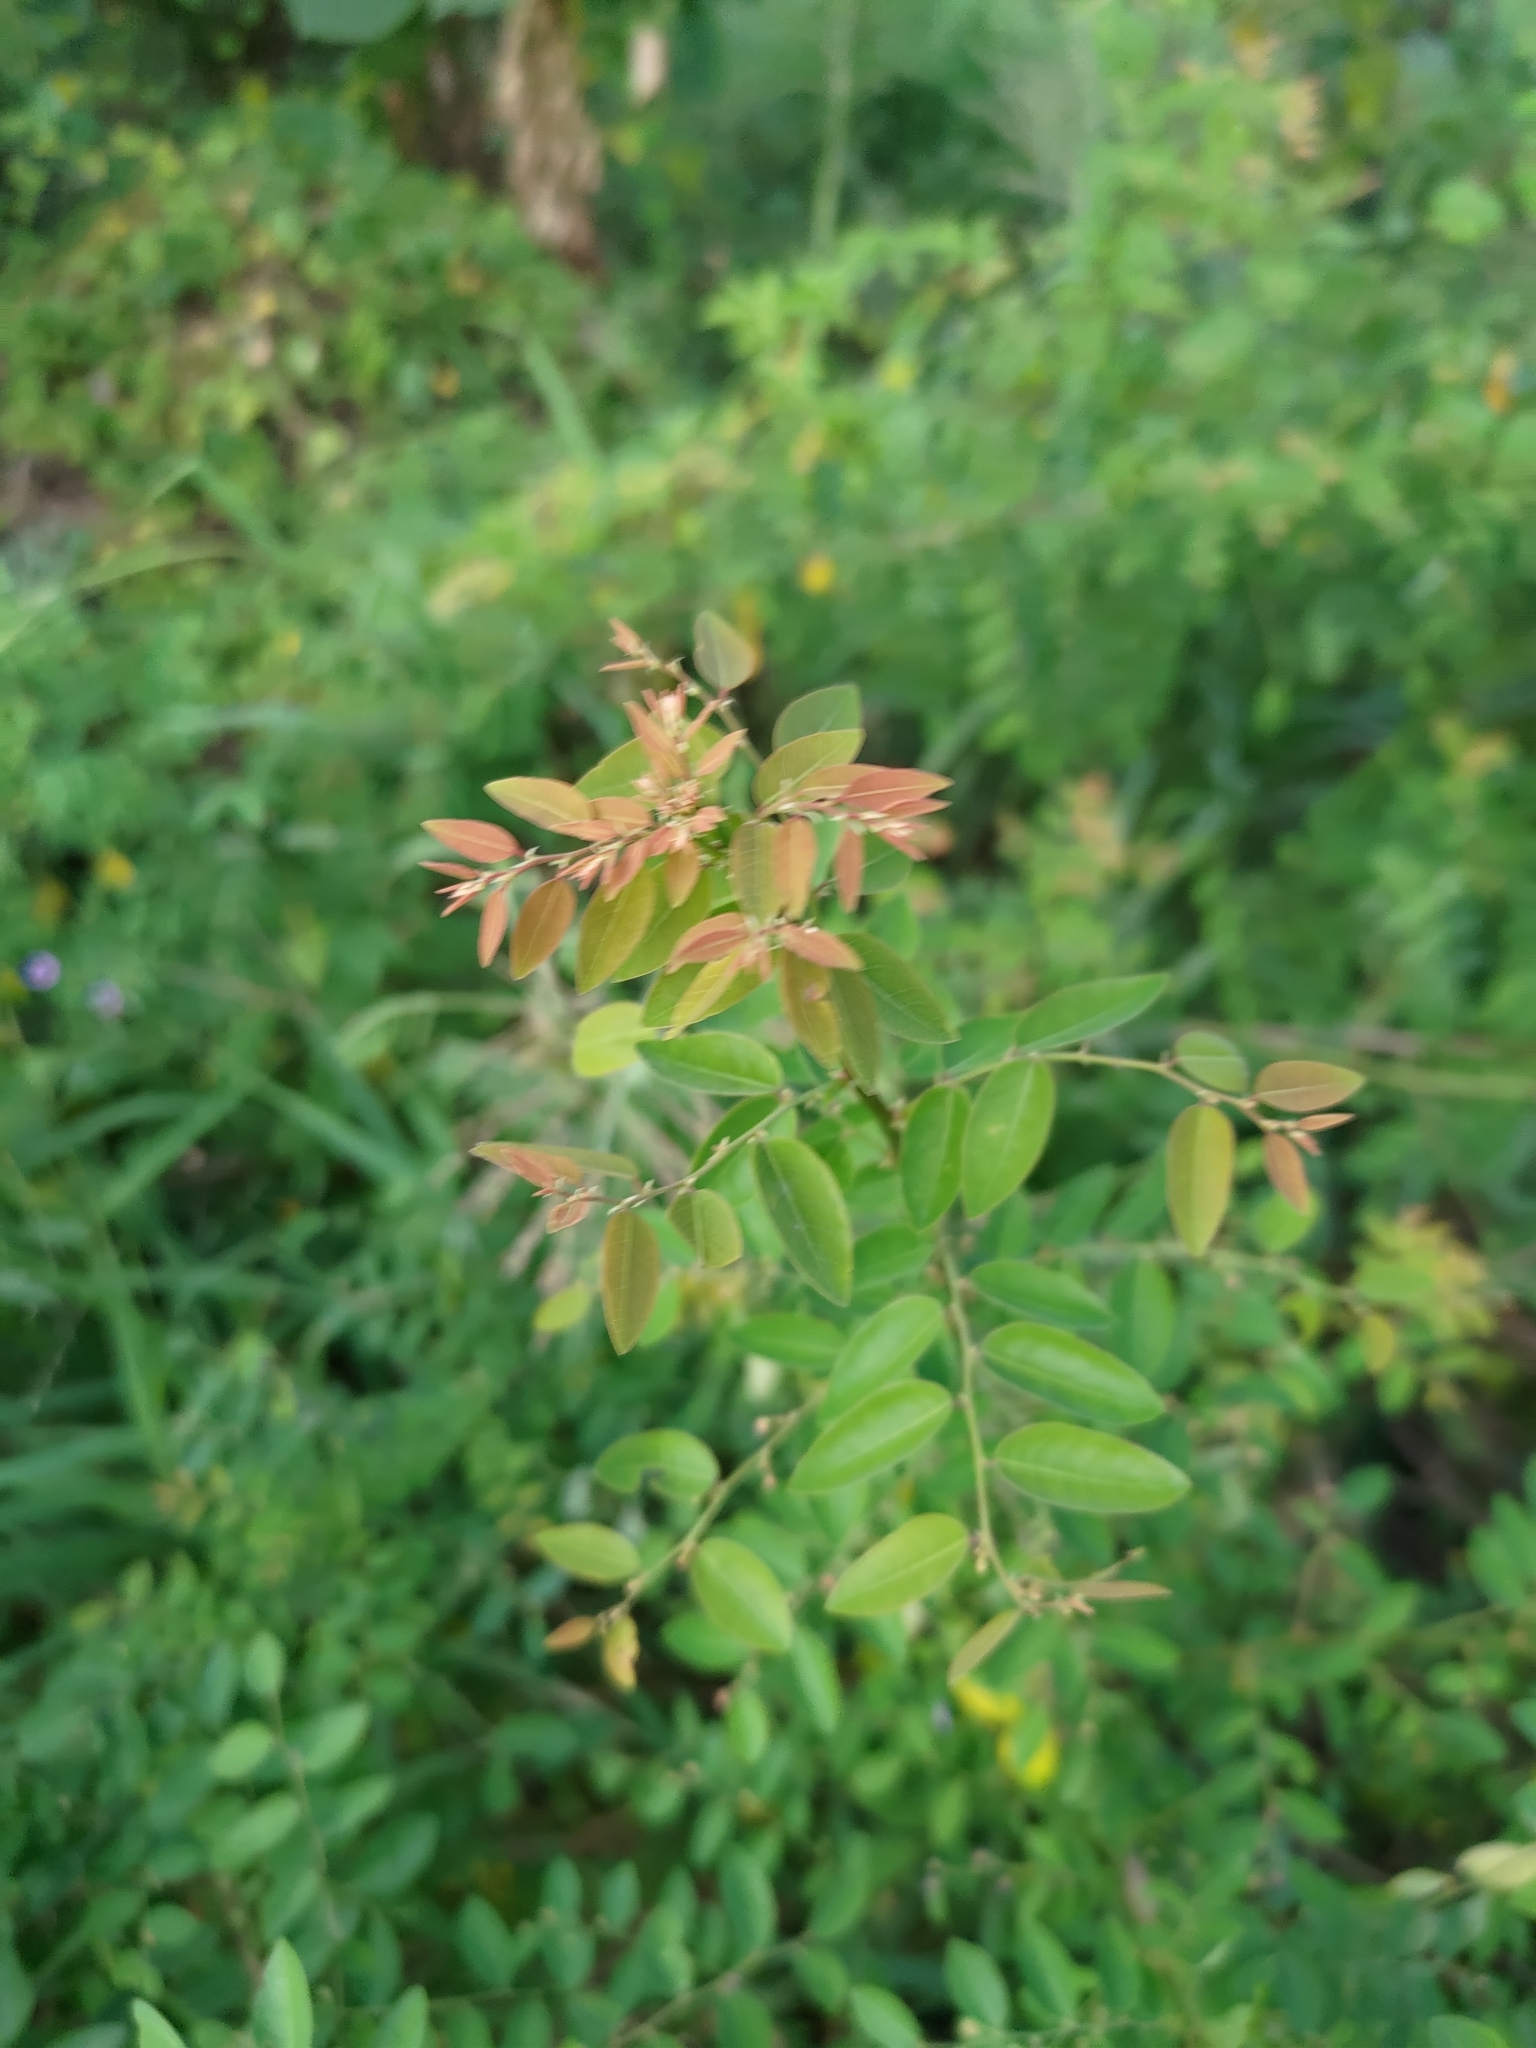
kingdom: Plantae
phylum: Tracheophyta
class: Magnoliopsida
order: Malpighiales
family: Phyllanthaceae
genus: Phyllanthus
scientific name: Phyllanthus reticulatus
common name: Potato bush
